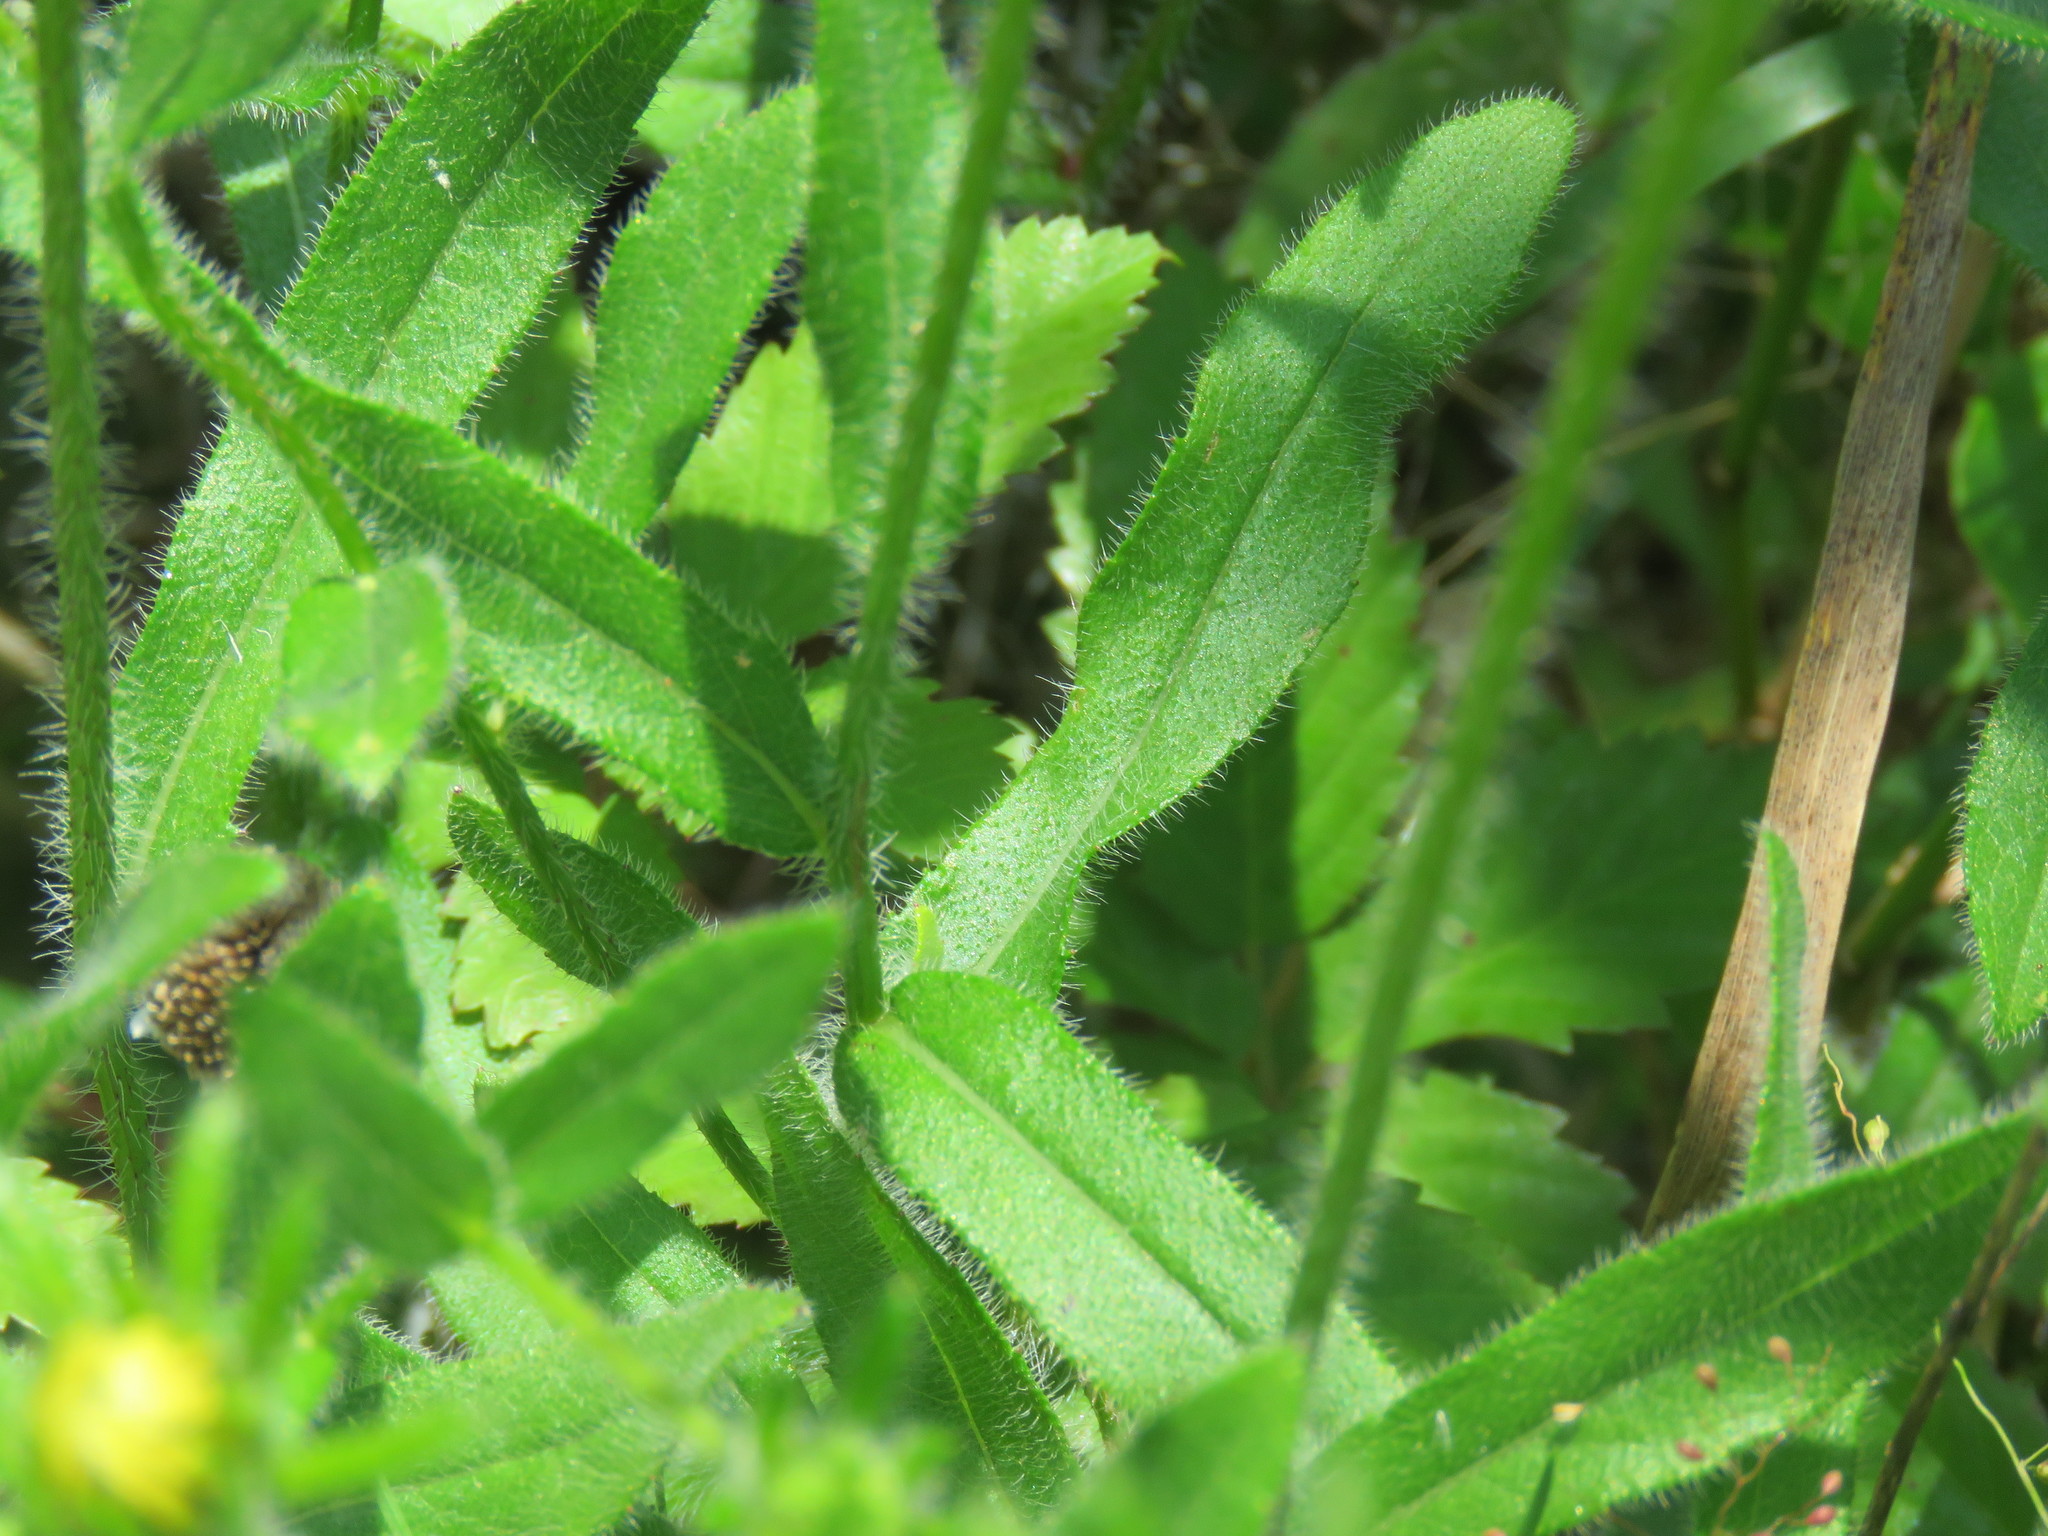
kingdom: Plantae
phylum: Tracheophyta
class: Magnoliopsida
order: Asterales
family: Asteraceae
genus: Rudbeckia
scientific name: Rudbeckia hirta
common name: Black-eyed-susan
